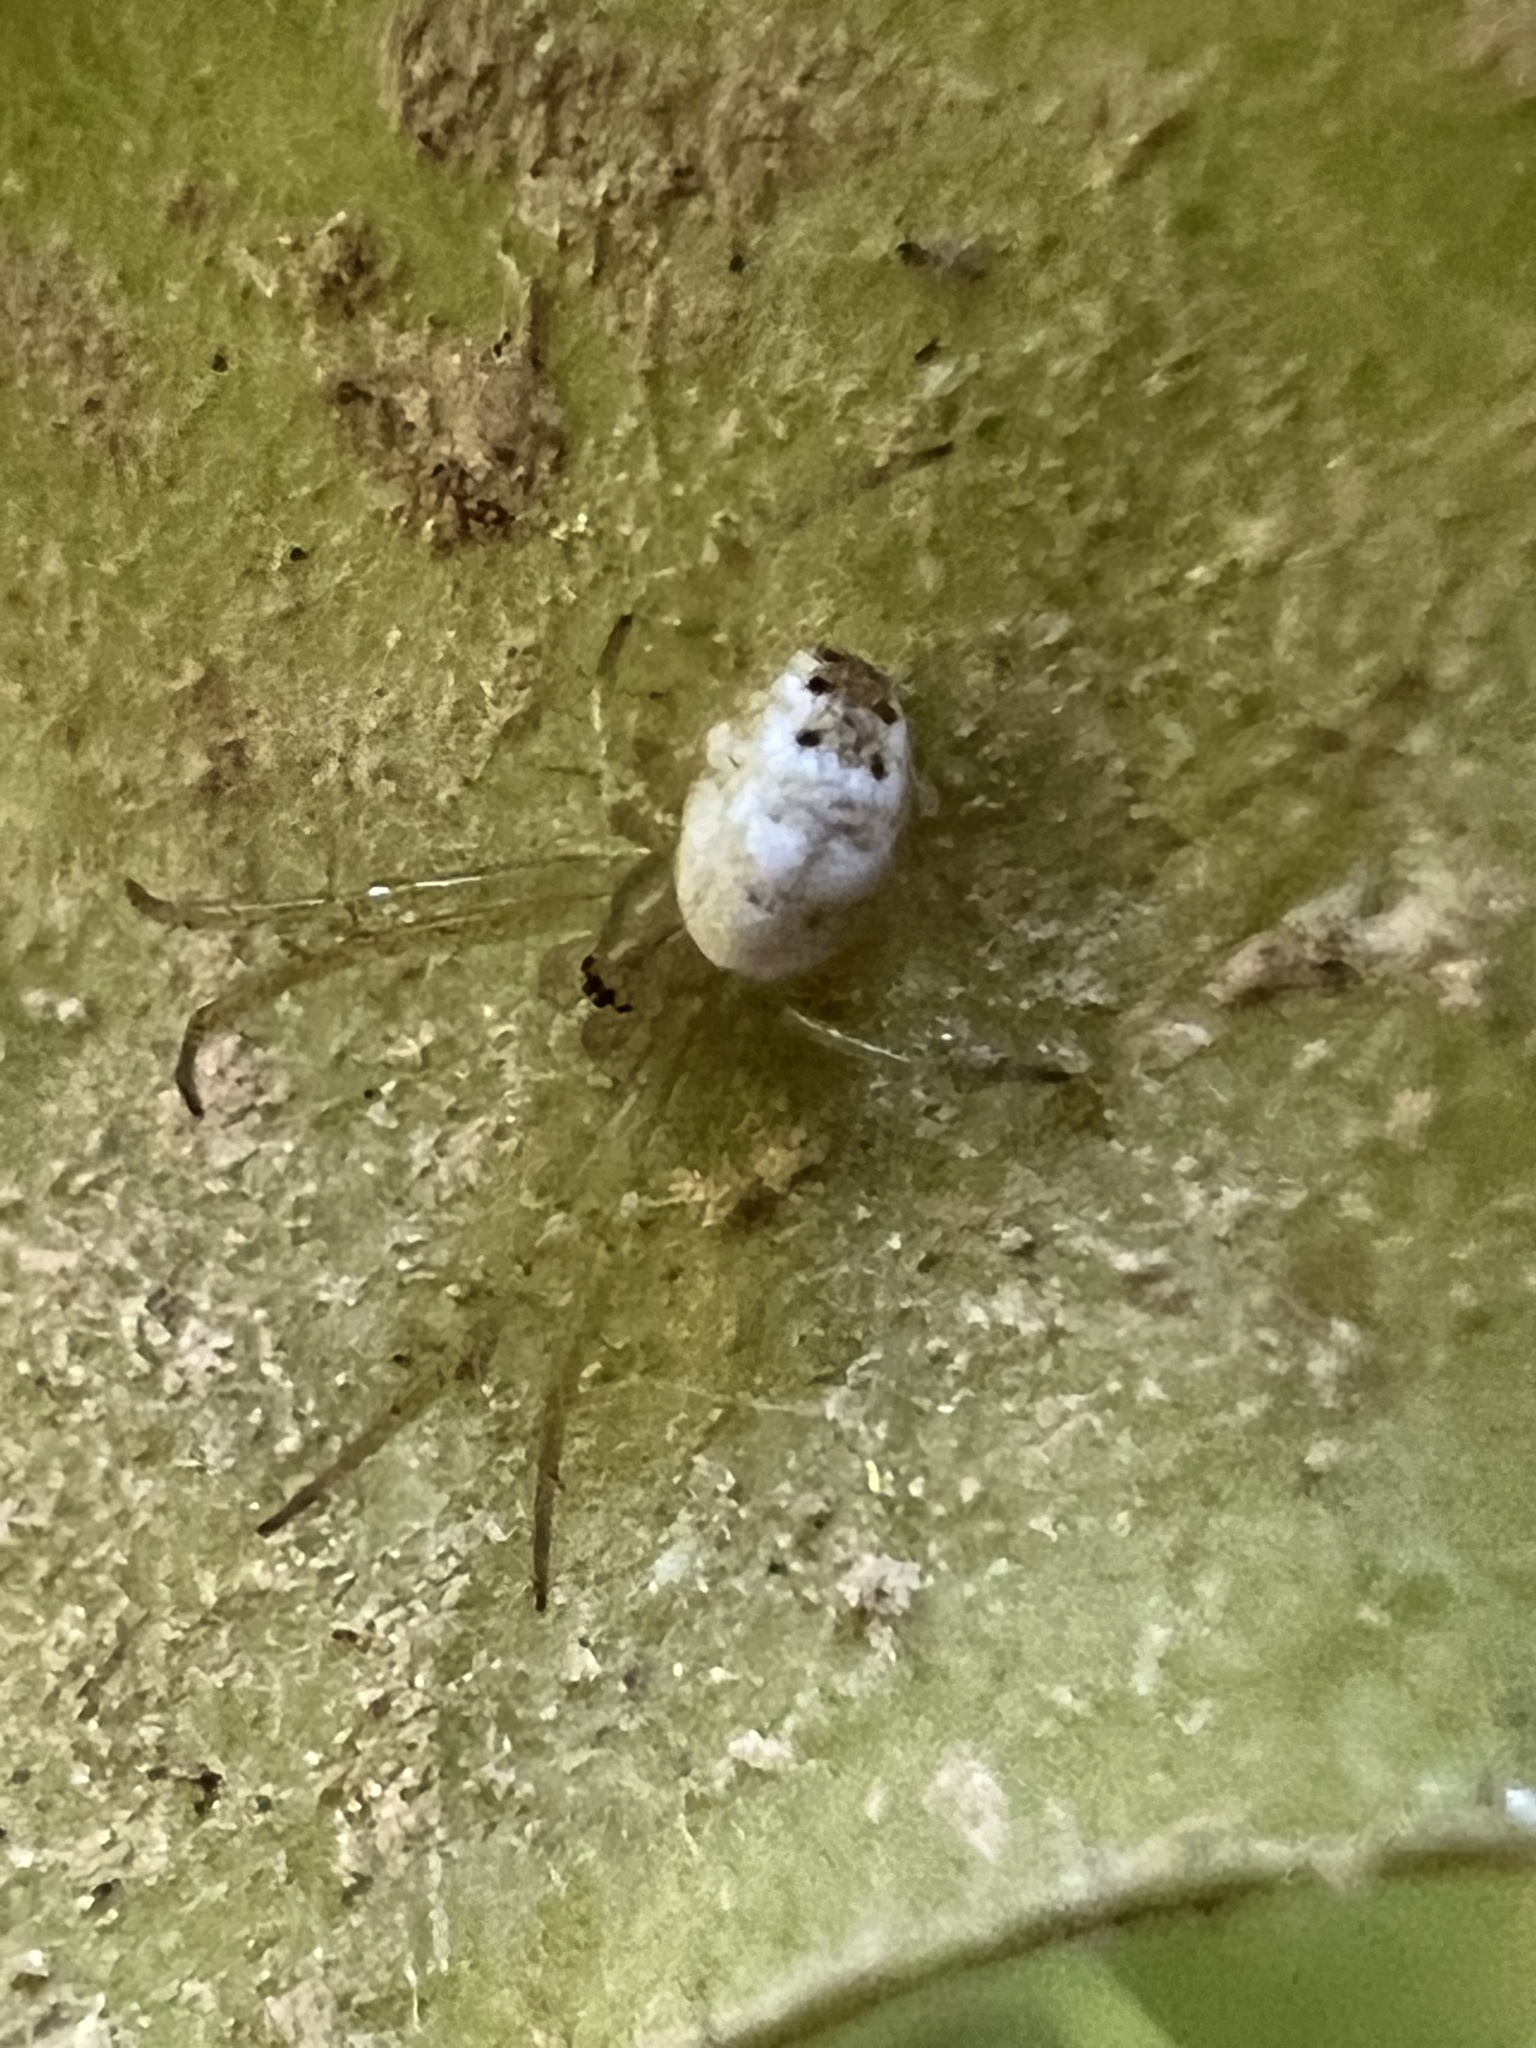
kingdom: Animalia
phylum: Arthropoda
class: Arachnida
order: Araneae
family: Araneidae
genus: Mangora
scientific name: Mangora maculata
